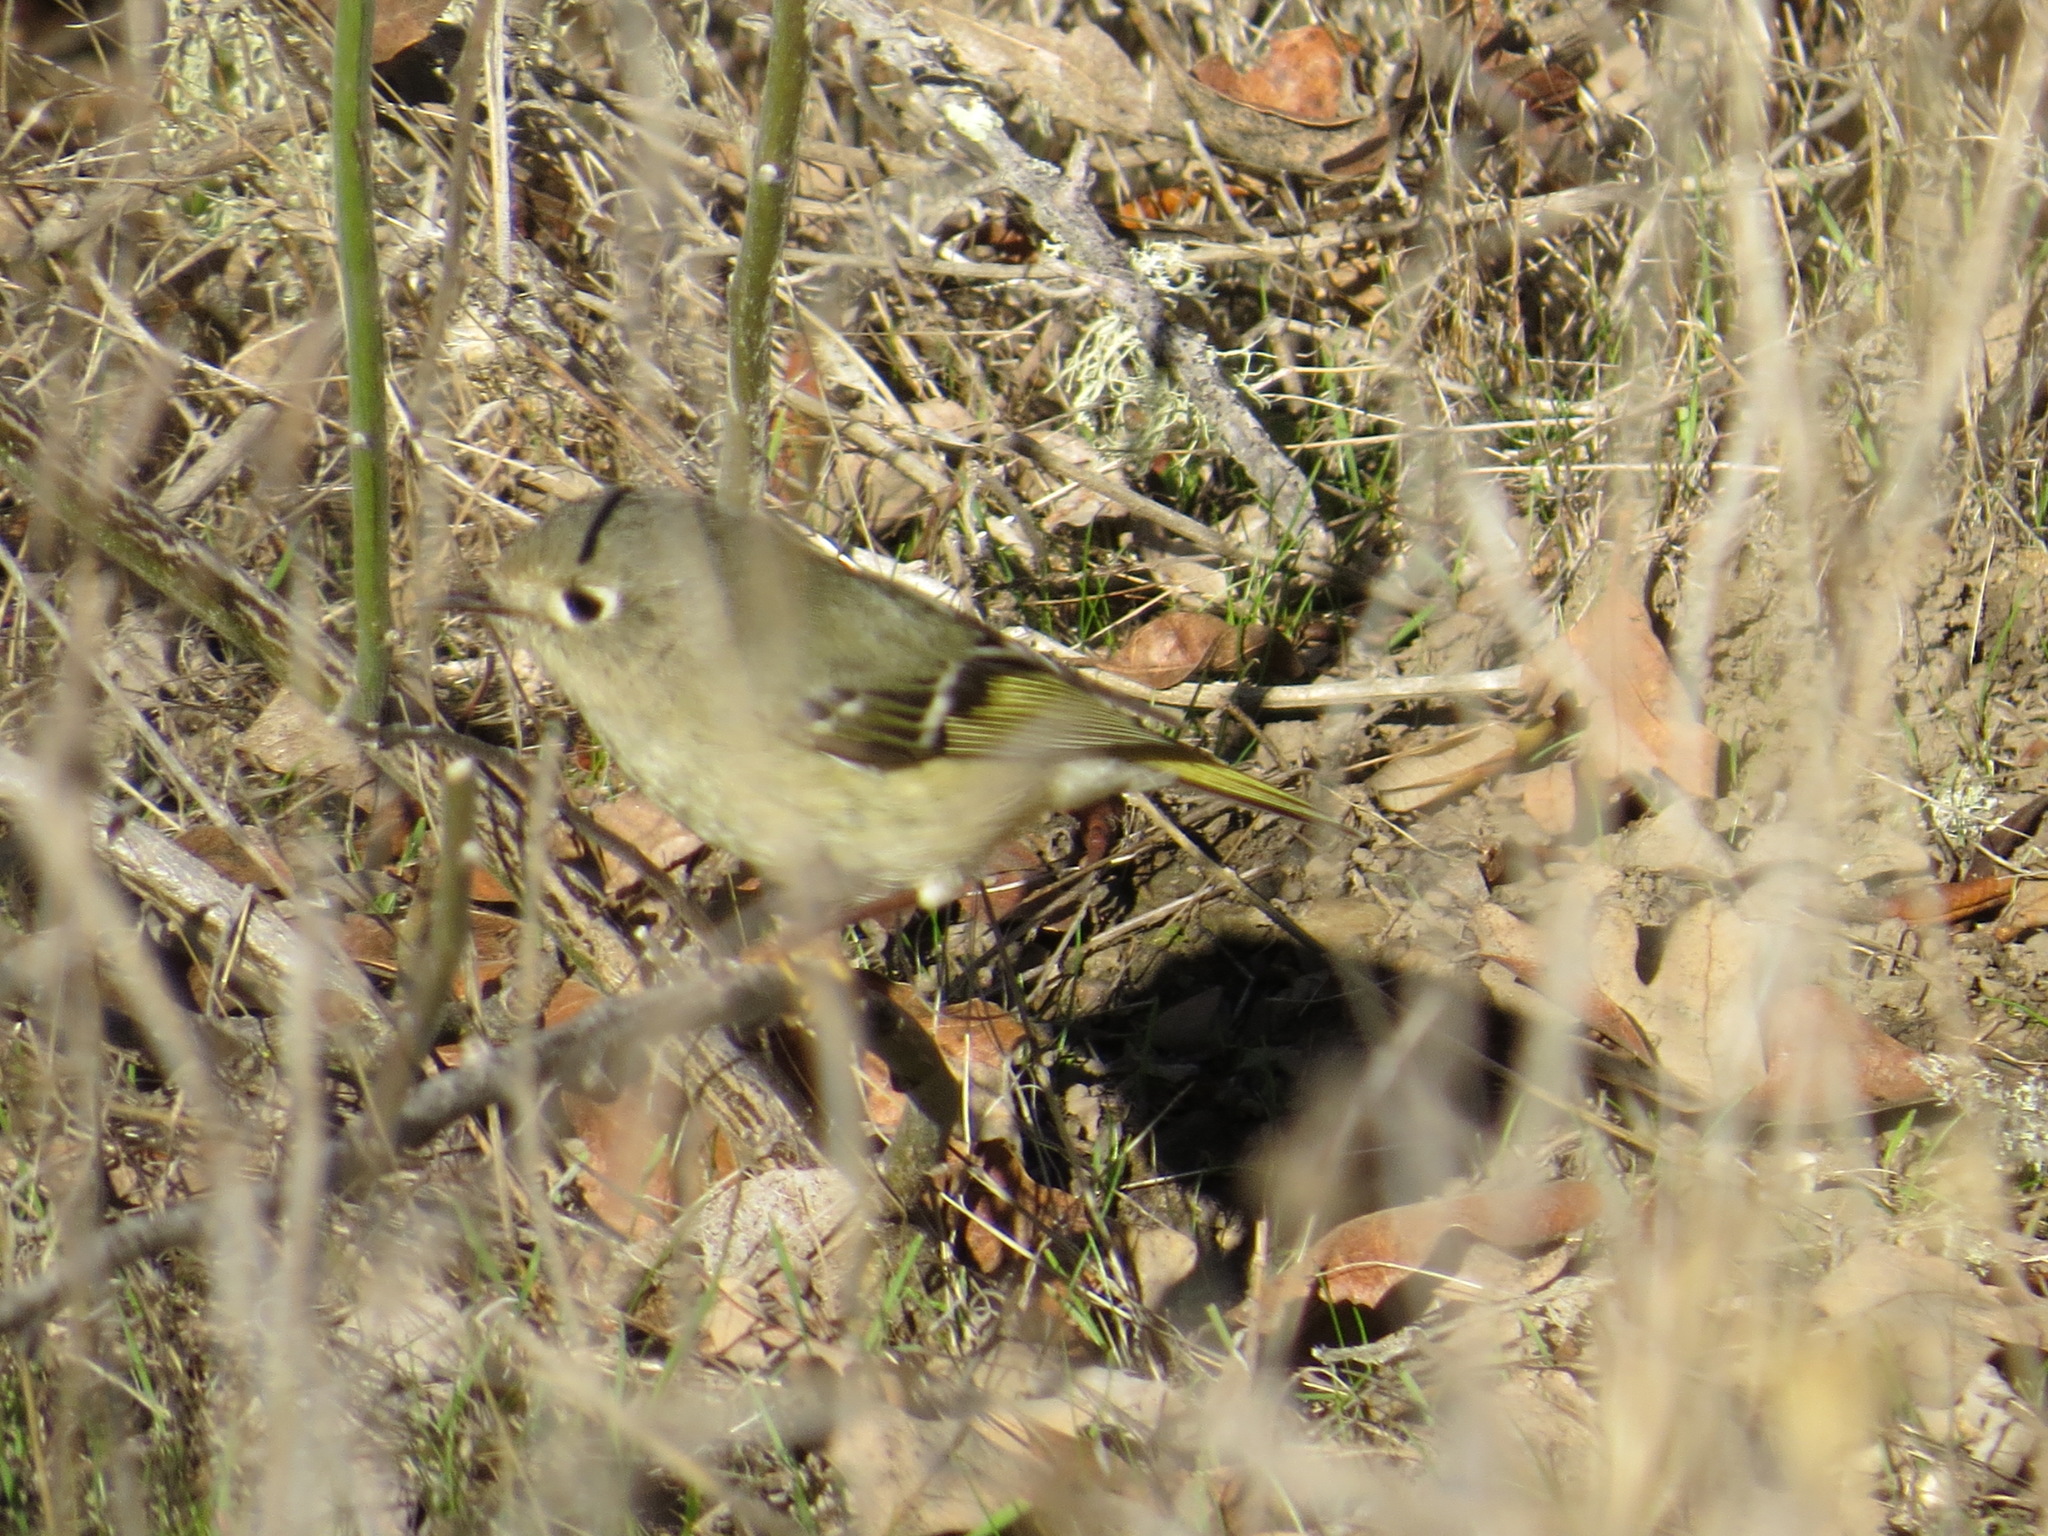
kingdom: Animalia
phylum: Chordata
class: Aves
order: Passeriformes
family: Regulidae
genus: Regulus
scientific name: Regulus calendula
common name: Ruby-crowned kinglet
